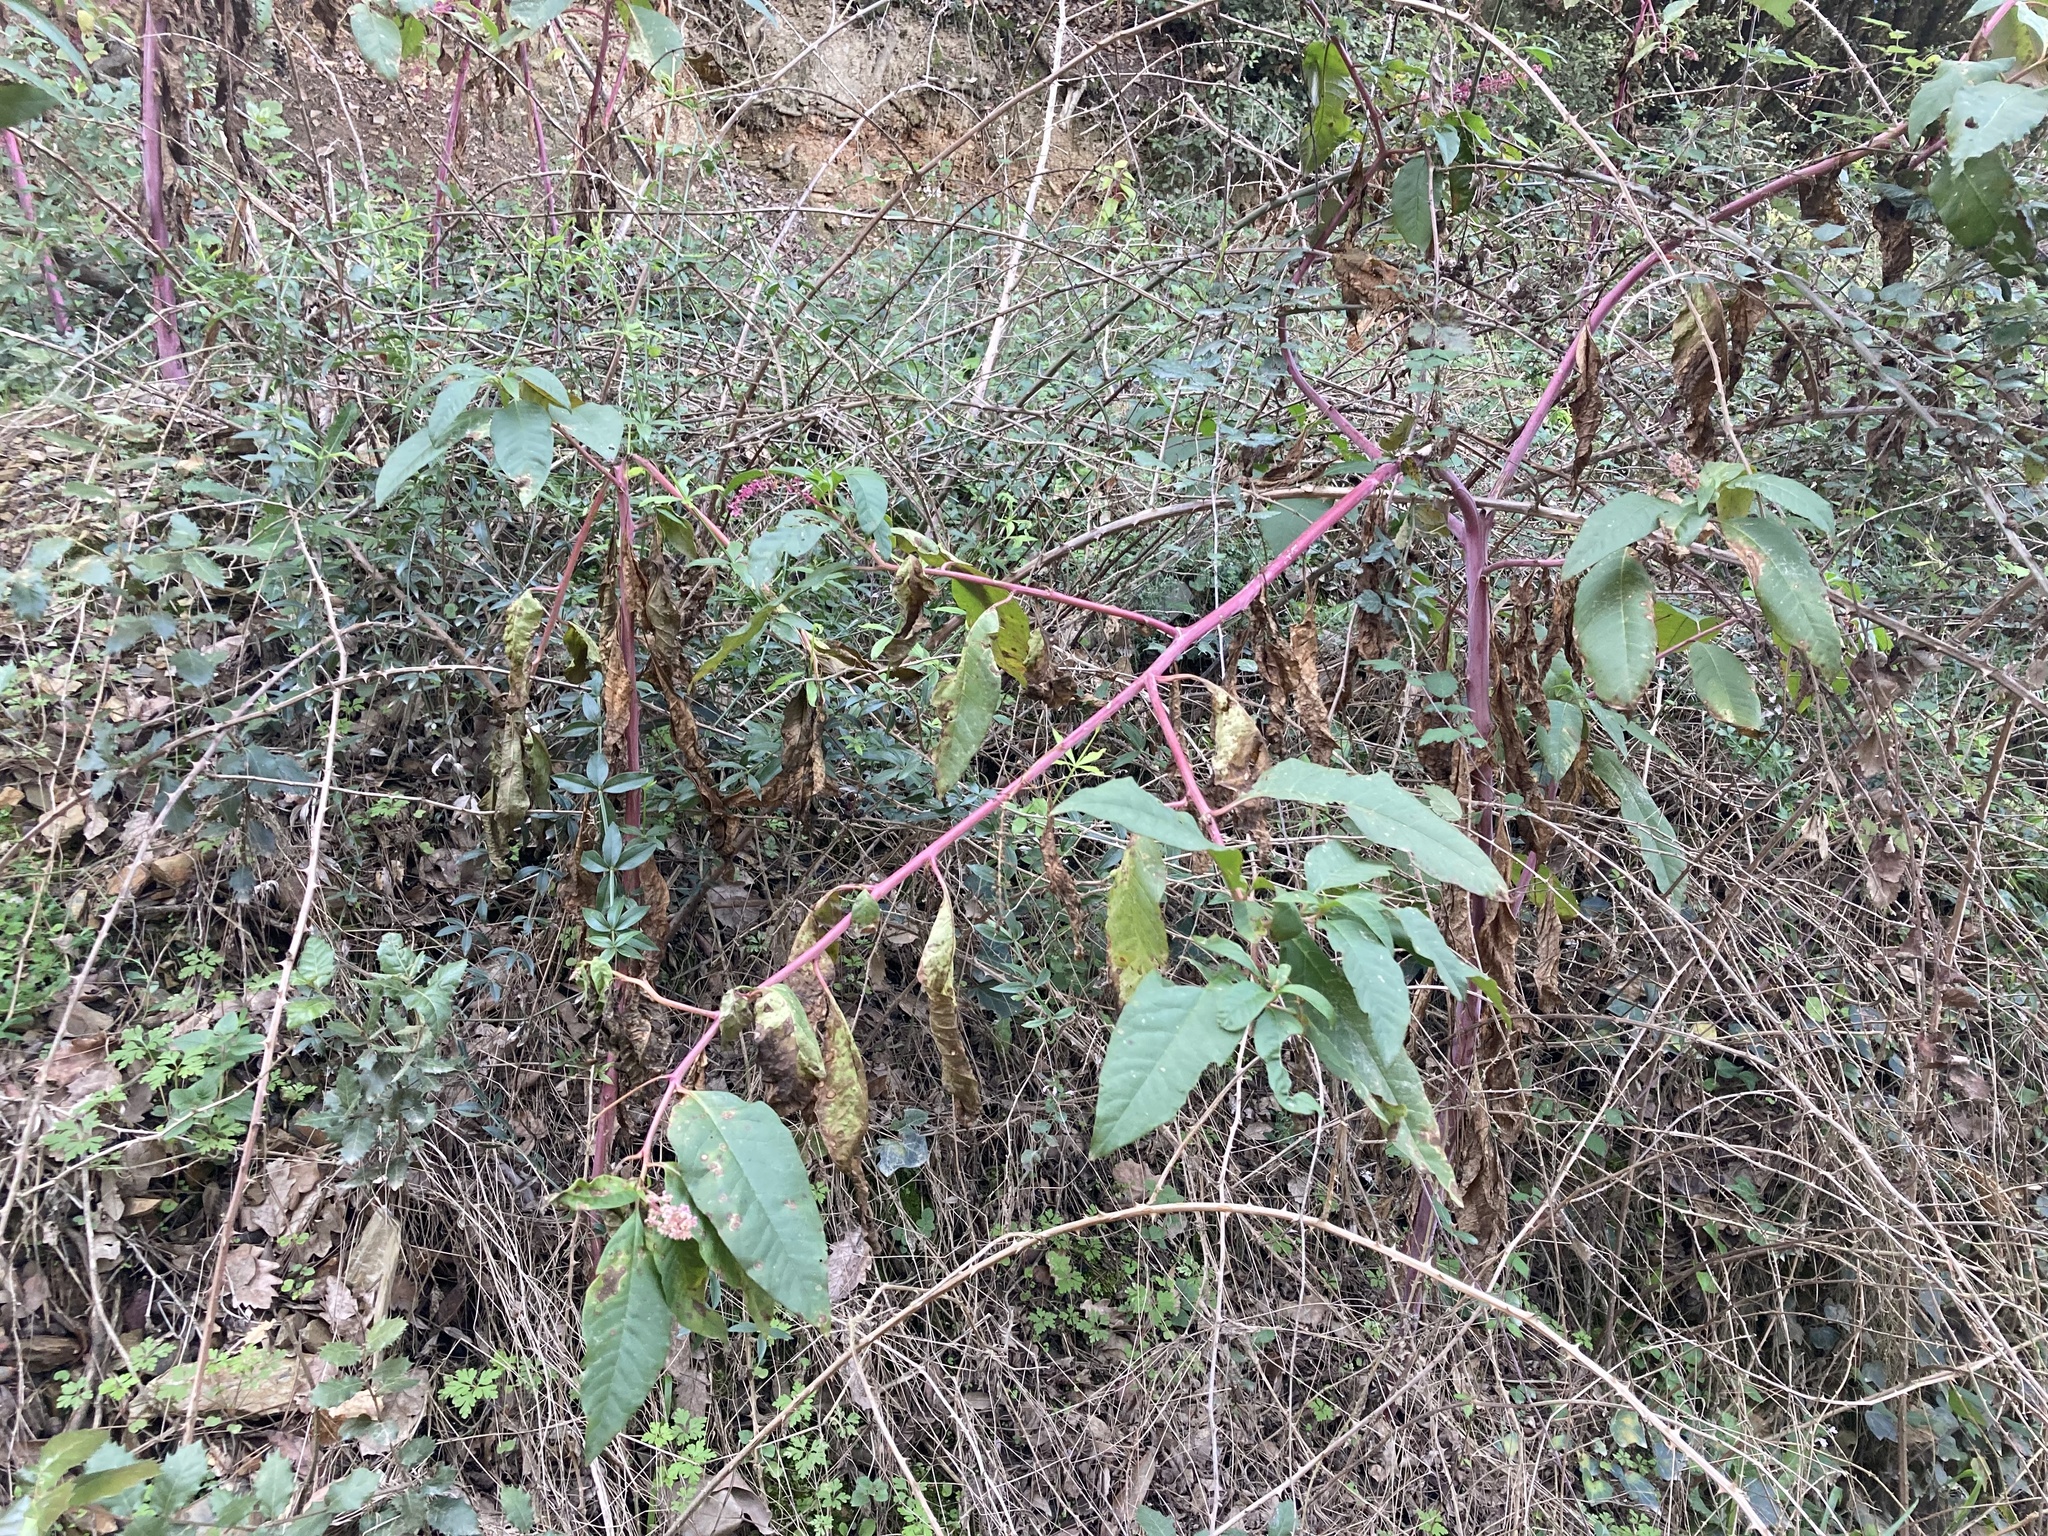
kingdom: Plantae
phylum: Tracheophyta
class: Magnoliopsida
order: Caryophyllales
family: Phytolaccaceae
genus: Phytolacca
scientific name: Phytolacca americana
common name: American pokeweed
